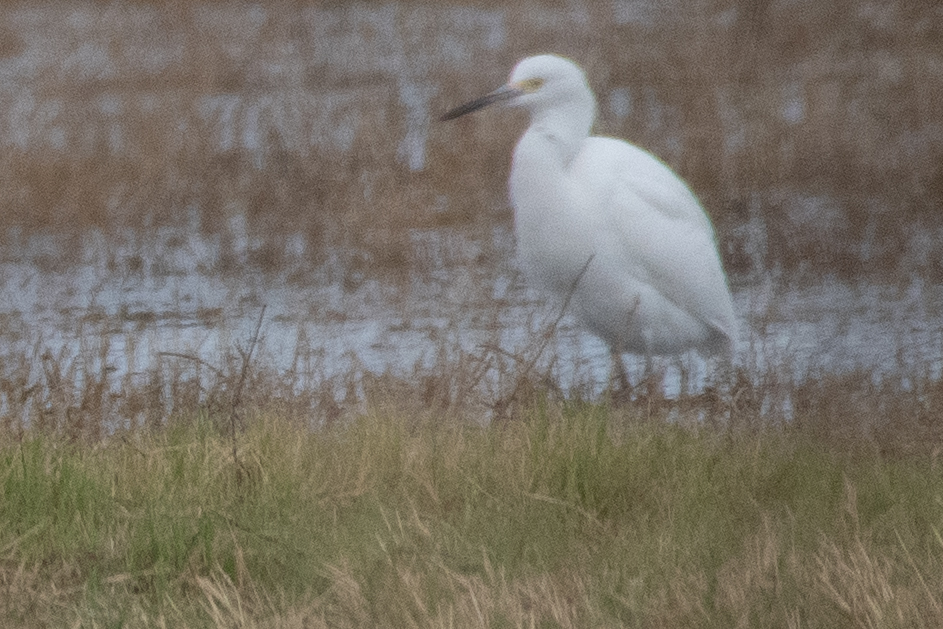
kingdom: Animalia
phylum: Chordata
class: Aves
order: Pelecaniformes
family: Ardeidae
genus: Egretta
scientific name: Egretta thula
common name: Snowy egret
